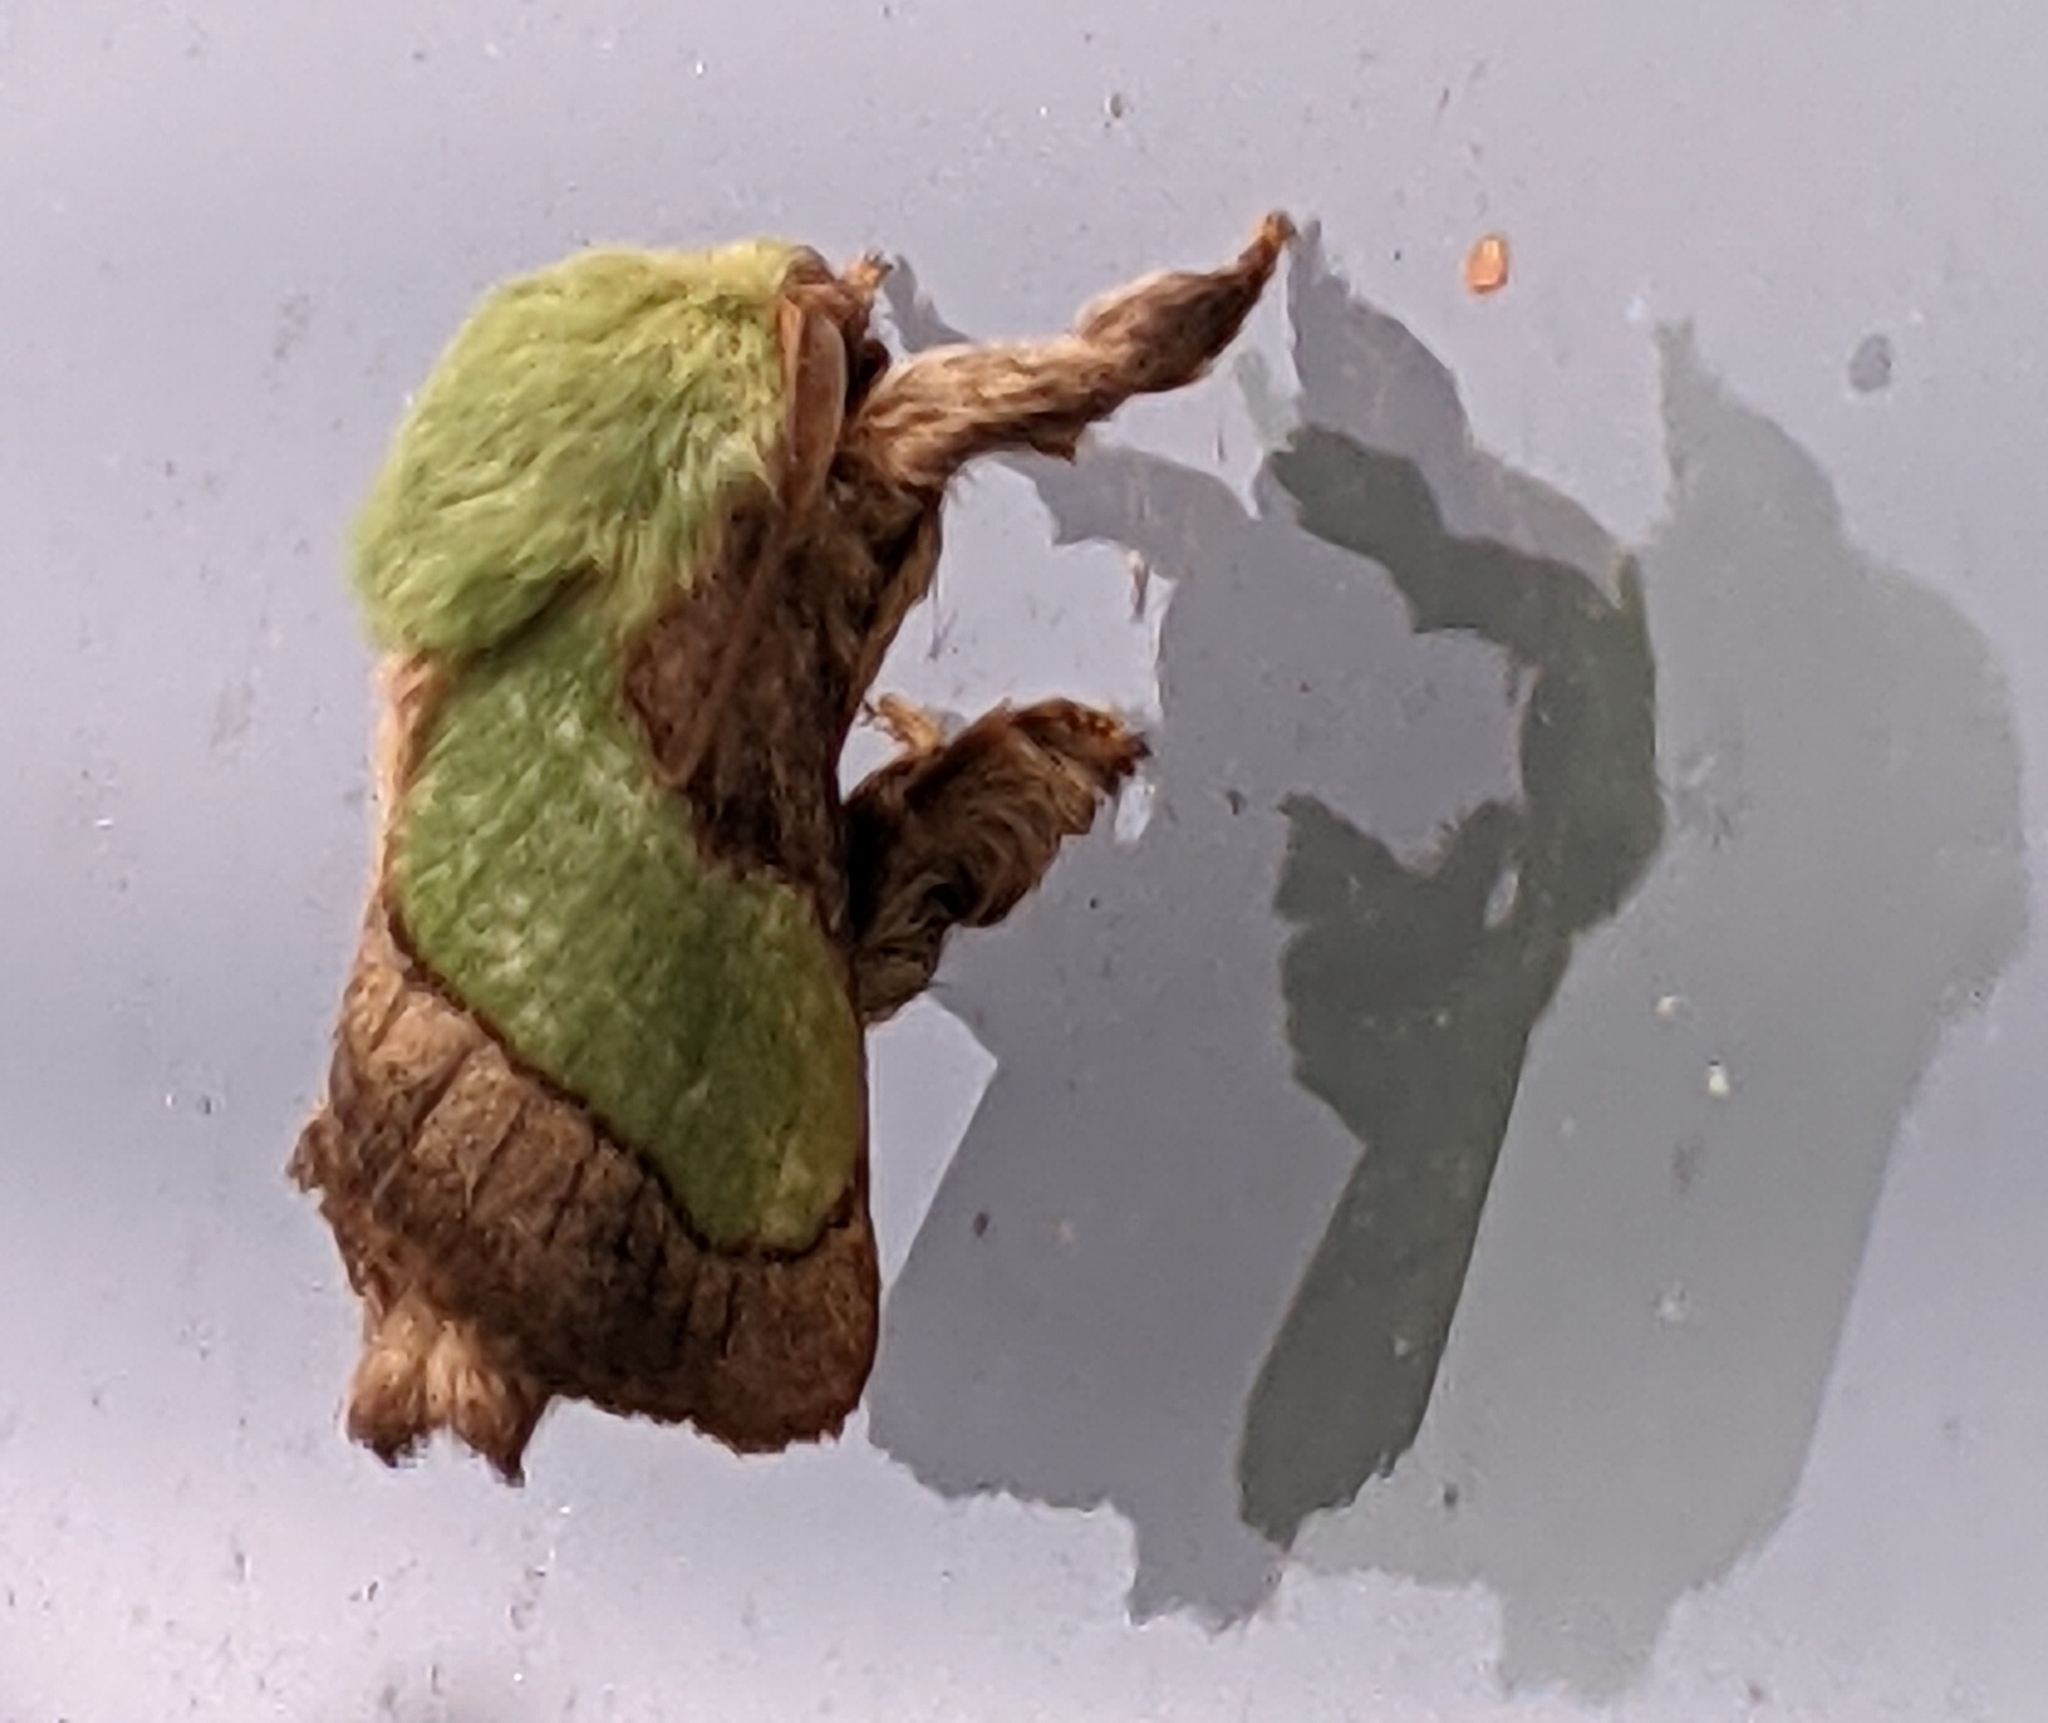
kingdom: Animalia
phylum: Arthropoda
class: Insecta
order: Lepidoptera
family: Limacodidae
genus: Parasa
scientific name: Parasa chloris
